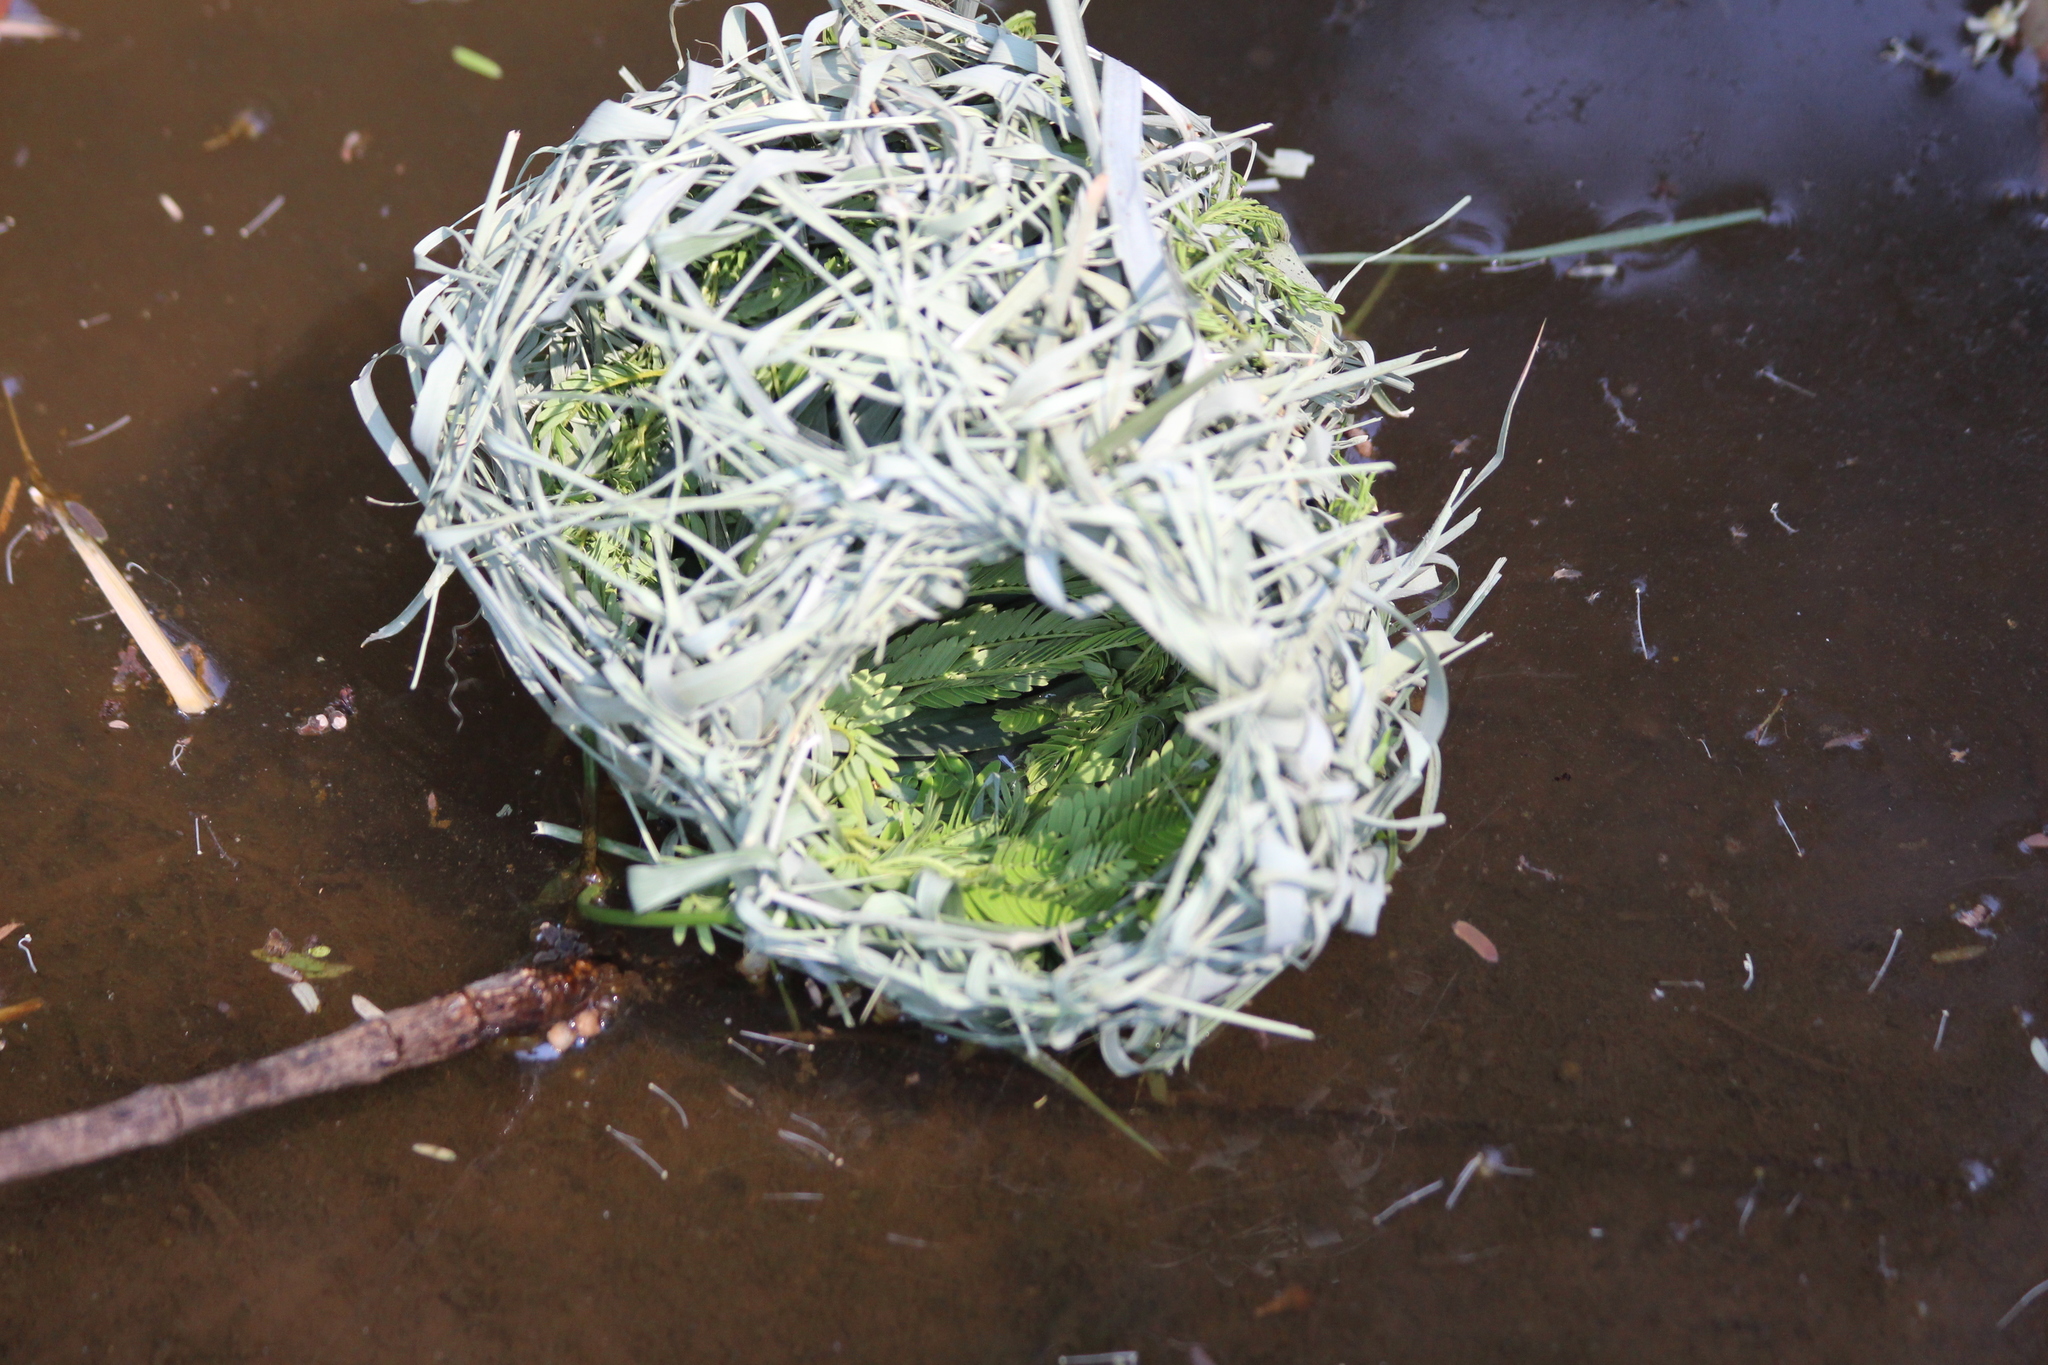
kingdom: Animalia
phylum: Chordata
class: Aves
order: Passeriformes
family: Ploceidae
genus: Ploceus
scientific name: Ploceus cucullatus
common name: Village weaver
